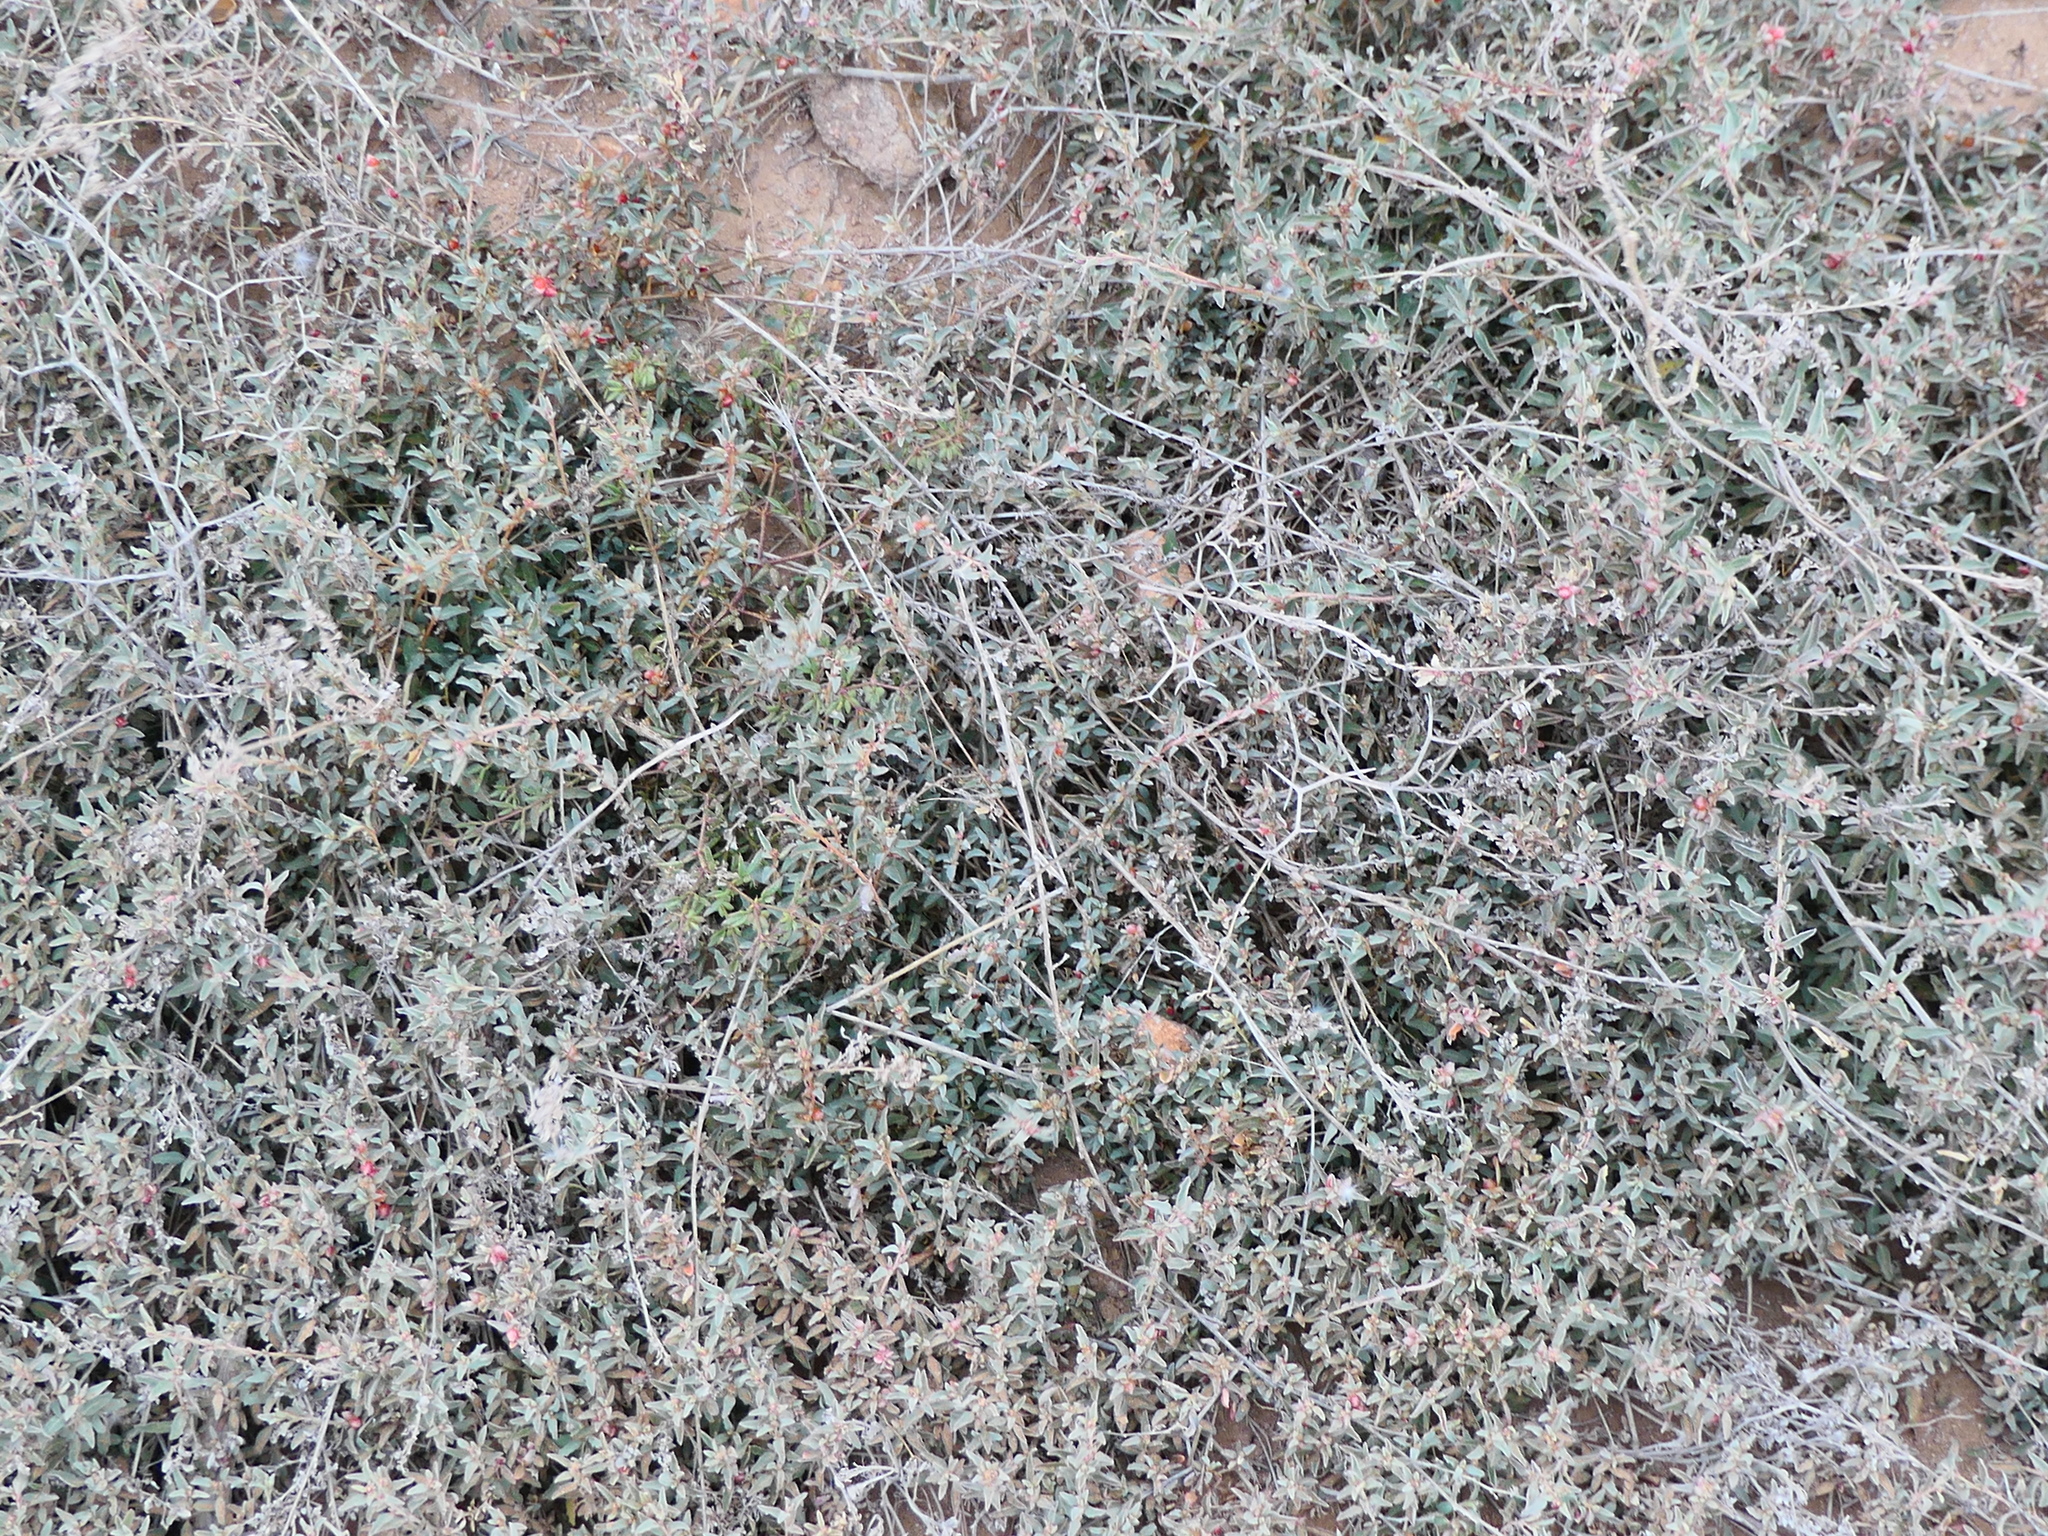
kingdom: Plantae
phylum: Tracheophyta
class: Magnoliopsida
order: Caryophyllales
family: Amaranthaceae
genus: Atriplex
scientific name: Atriplex semibaccata
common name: Australian saltbush
